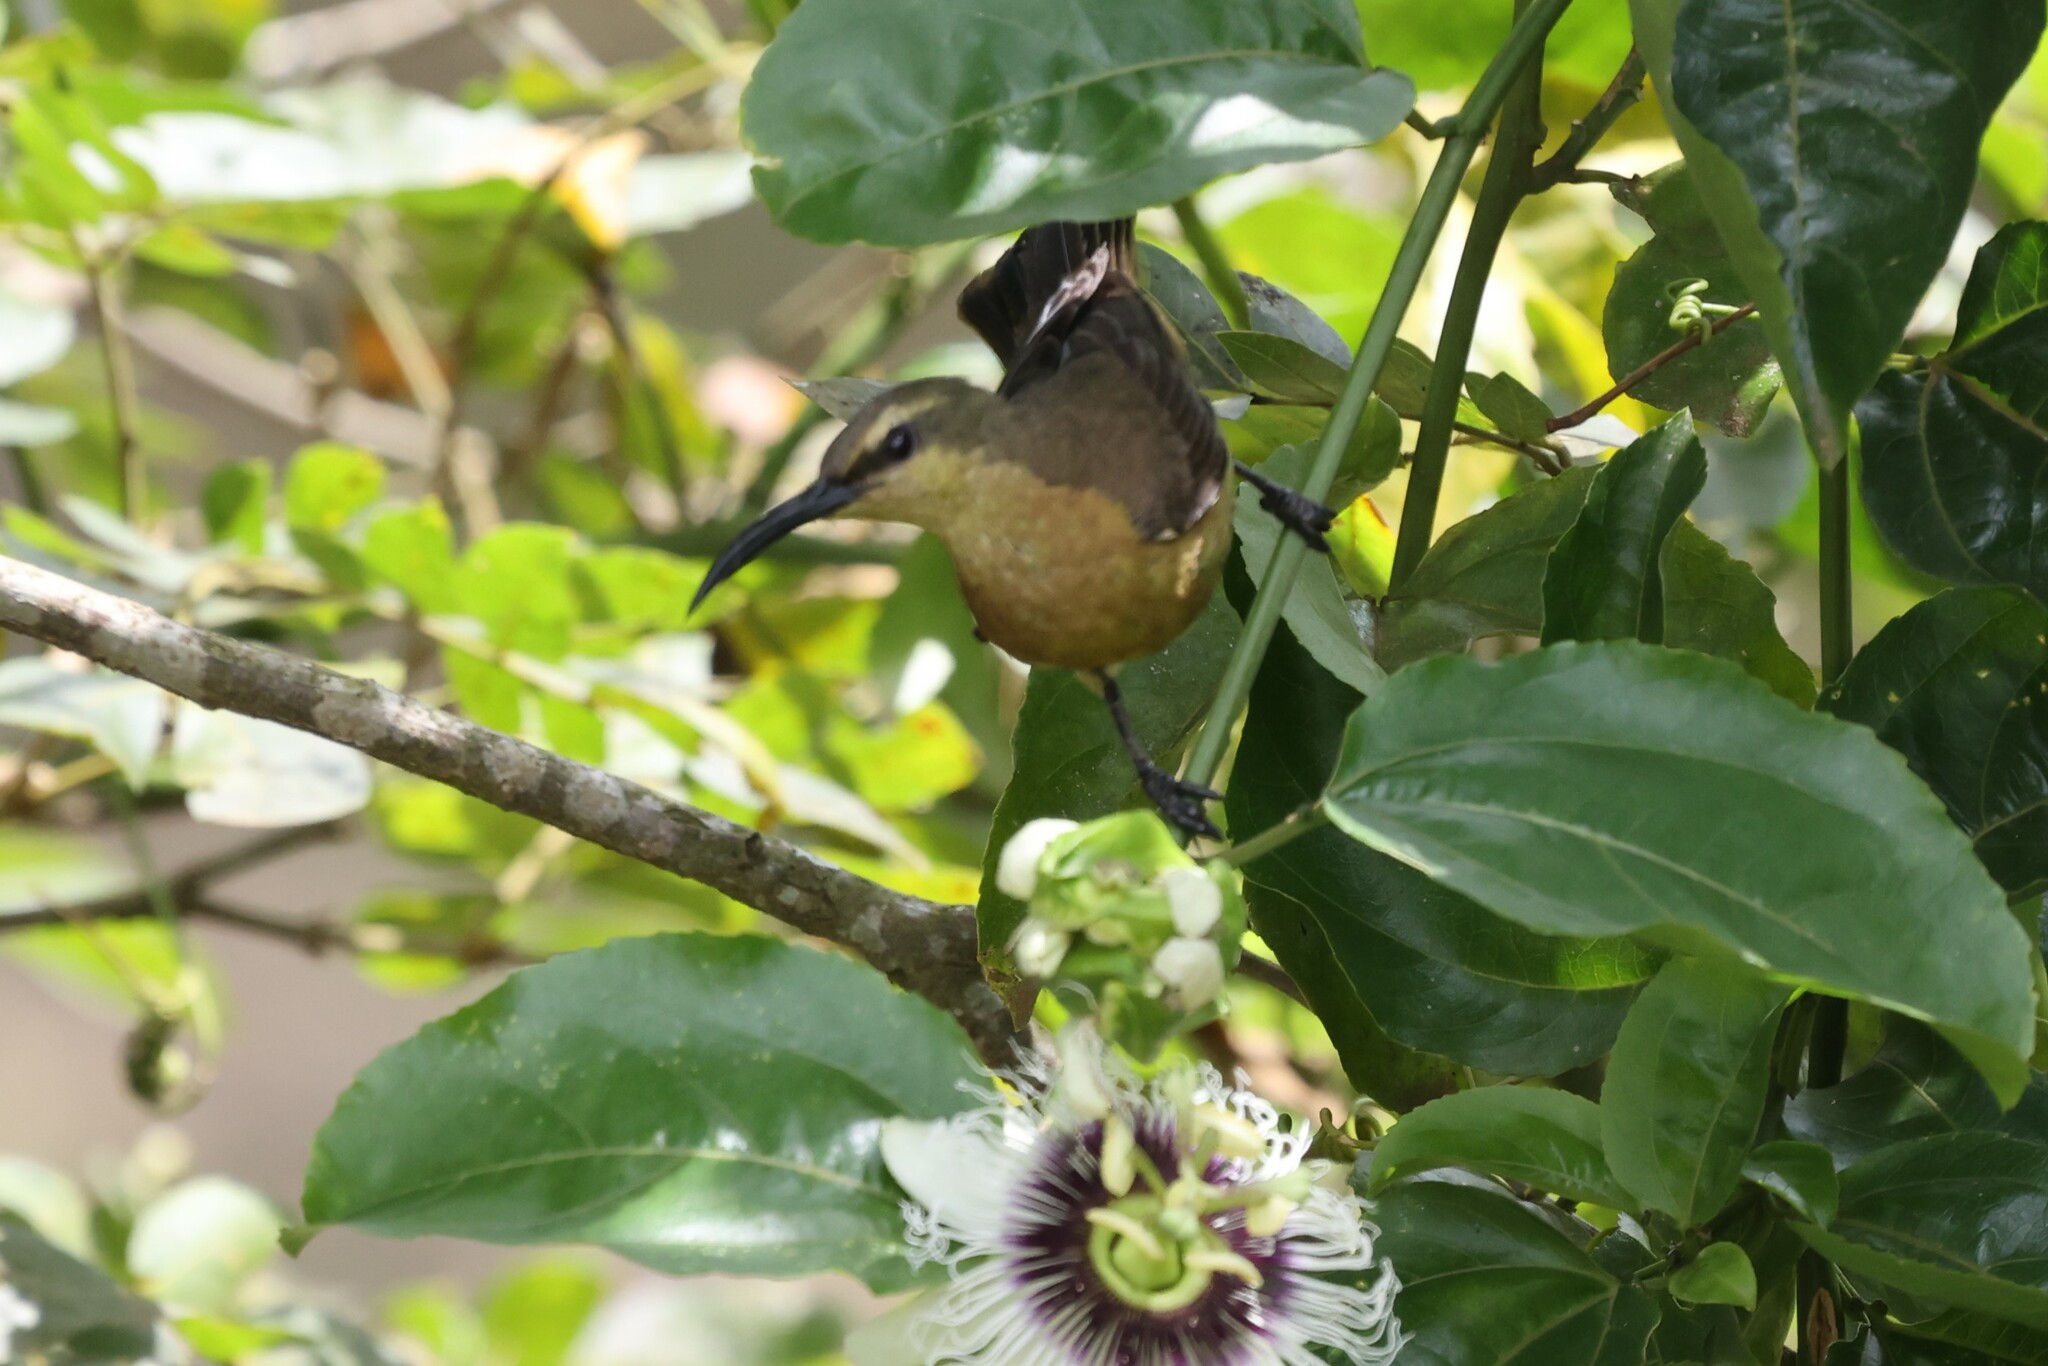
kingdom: Animalia
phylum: Chordata
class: Aves
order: Passeriformes
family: Nectariniidae
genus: Cinnyris
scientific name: Cinnyris superbus
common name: Superb sunbird
